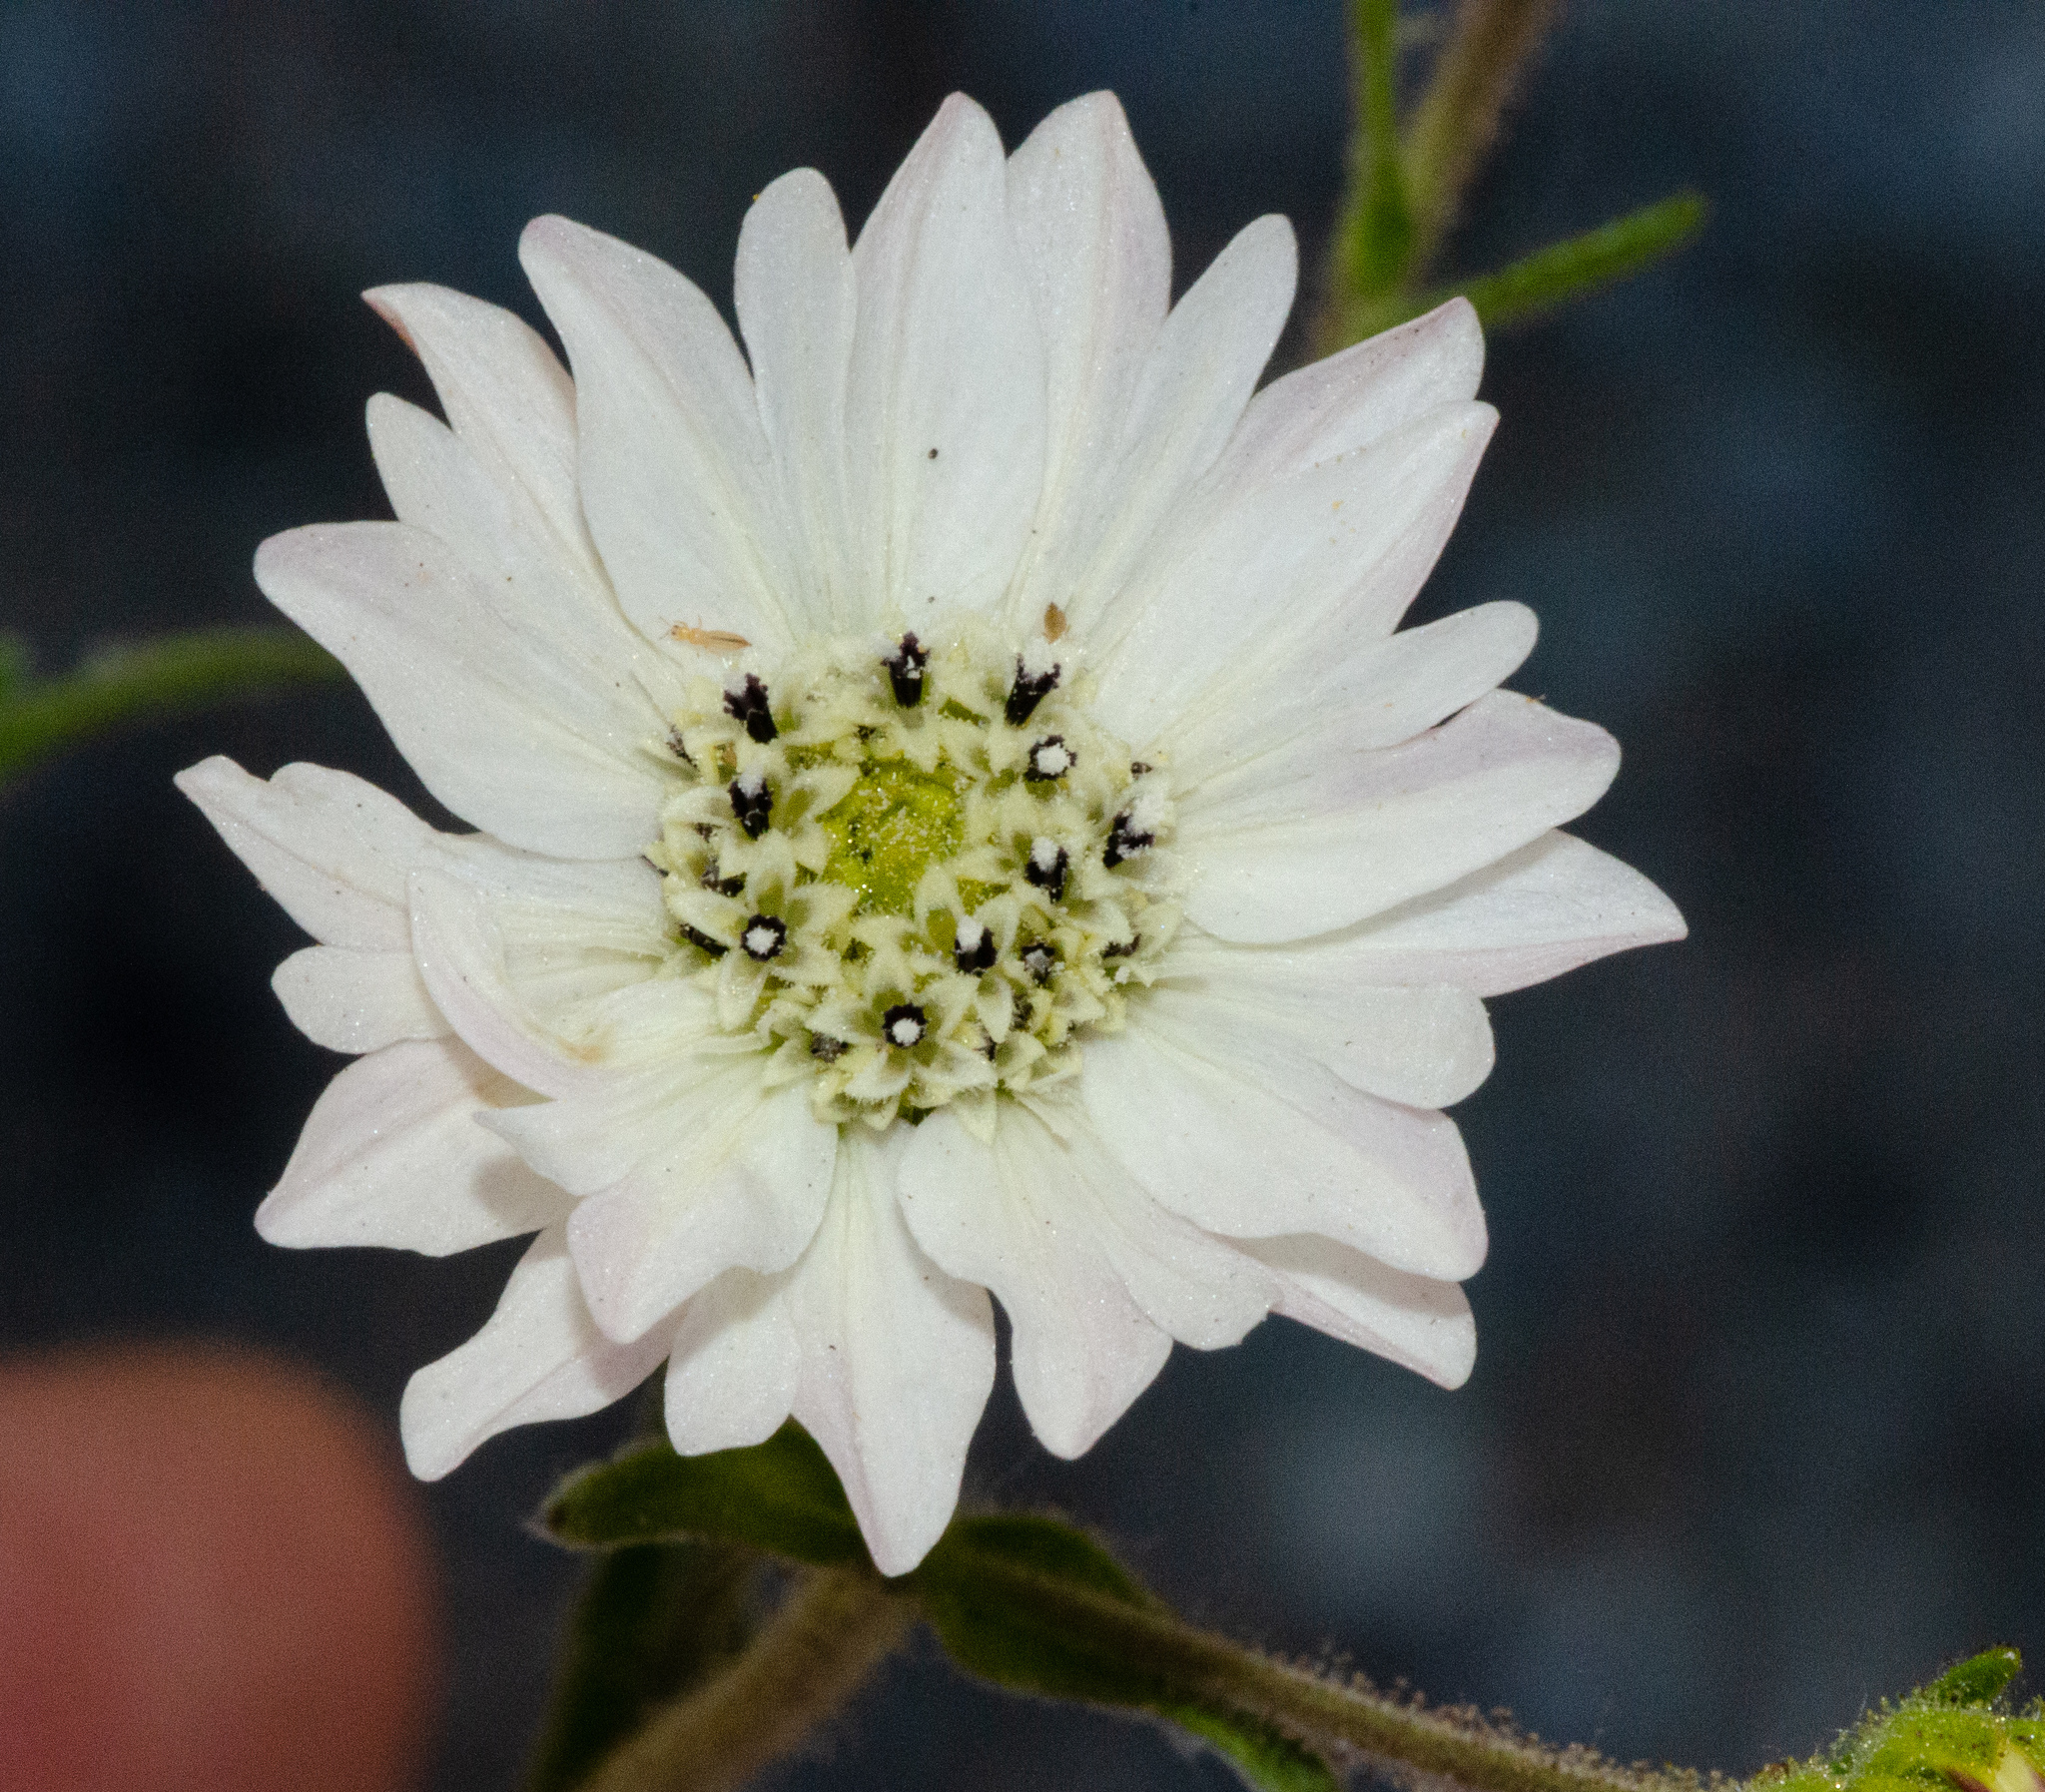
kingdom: Plantae
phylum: Tracheophyta
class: Magnoliopsida
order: Asterales
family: Asteraceae
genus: Hemizonia
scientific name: Hemizonia congesta
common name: Hayfield tarweed
